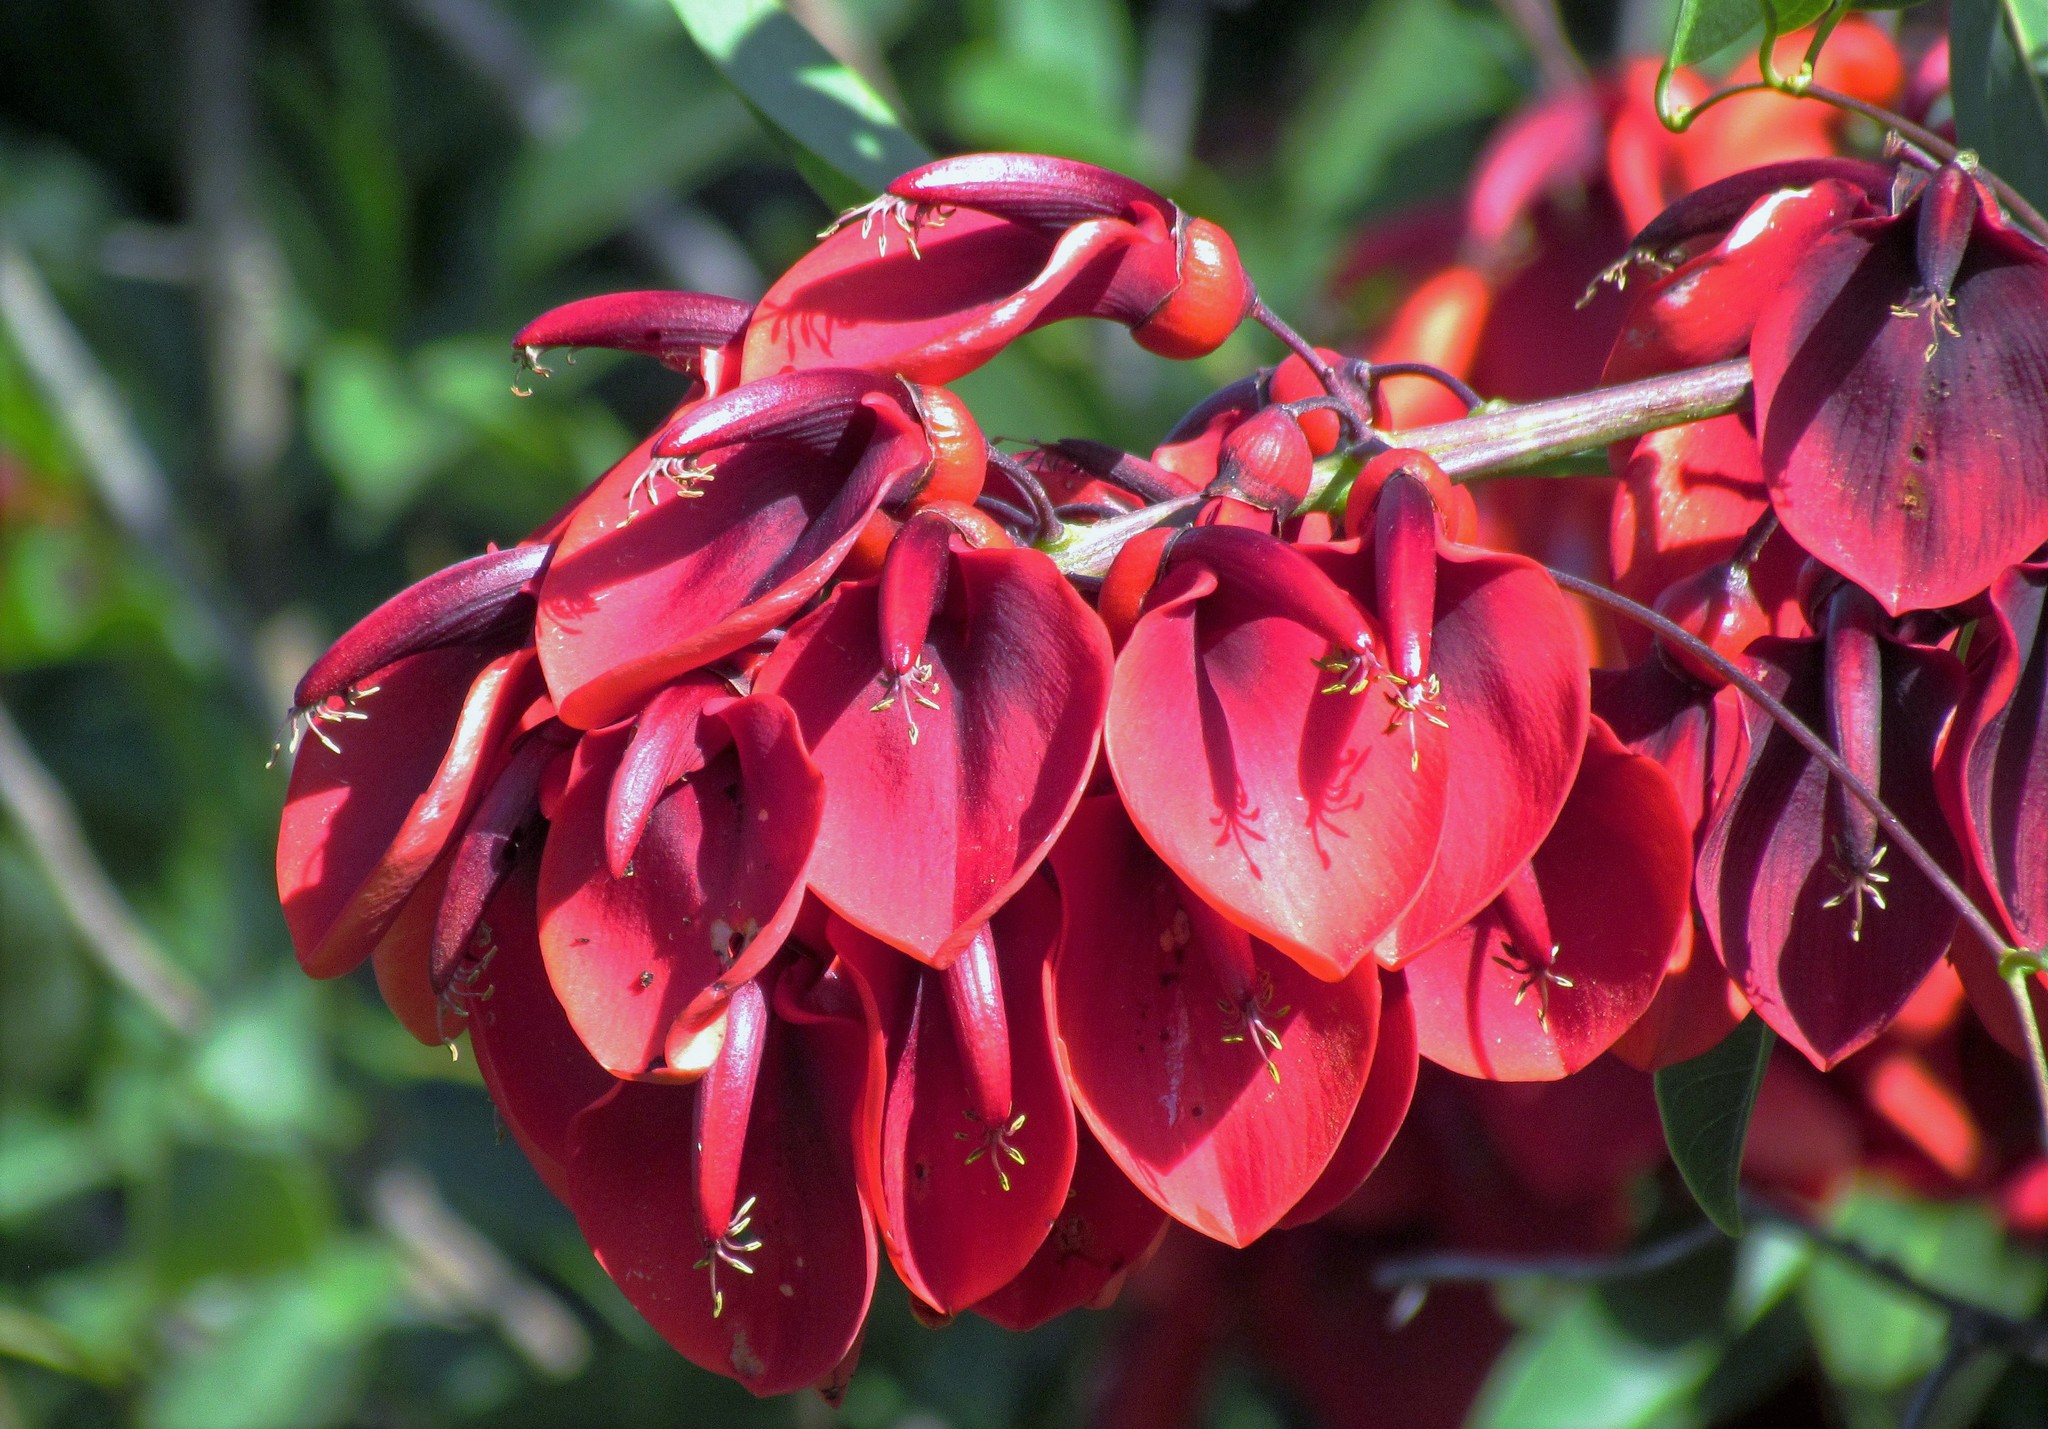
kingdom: Plantae
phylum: Tracheophyta
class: Magnoliopsida
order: Fabales
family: Fabaceae
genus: Erythrina
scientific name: Erythrina crista-galli
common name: Cockspur coral tree
